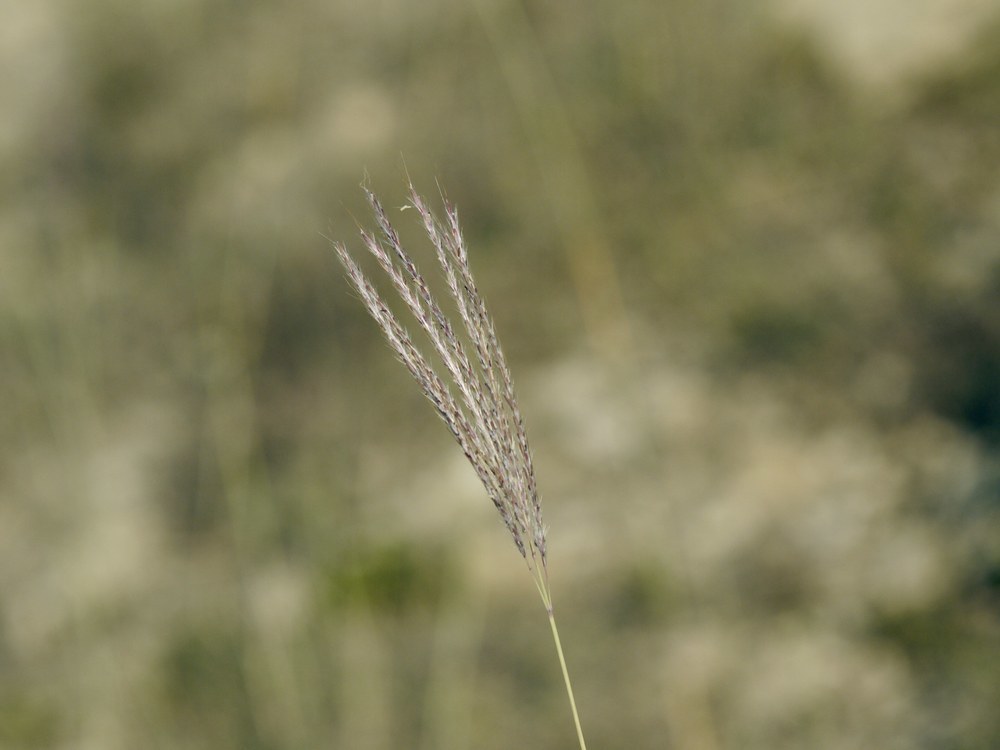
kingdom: Plantae
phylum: Tracheophyta
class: Liliopsida
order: Poales
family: Poaceae
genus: Bothriochloa
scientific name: Bothriochloa ischaemum
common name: Yellow bluestem
